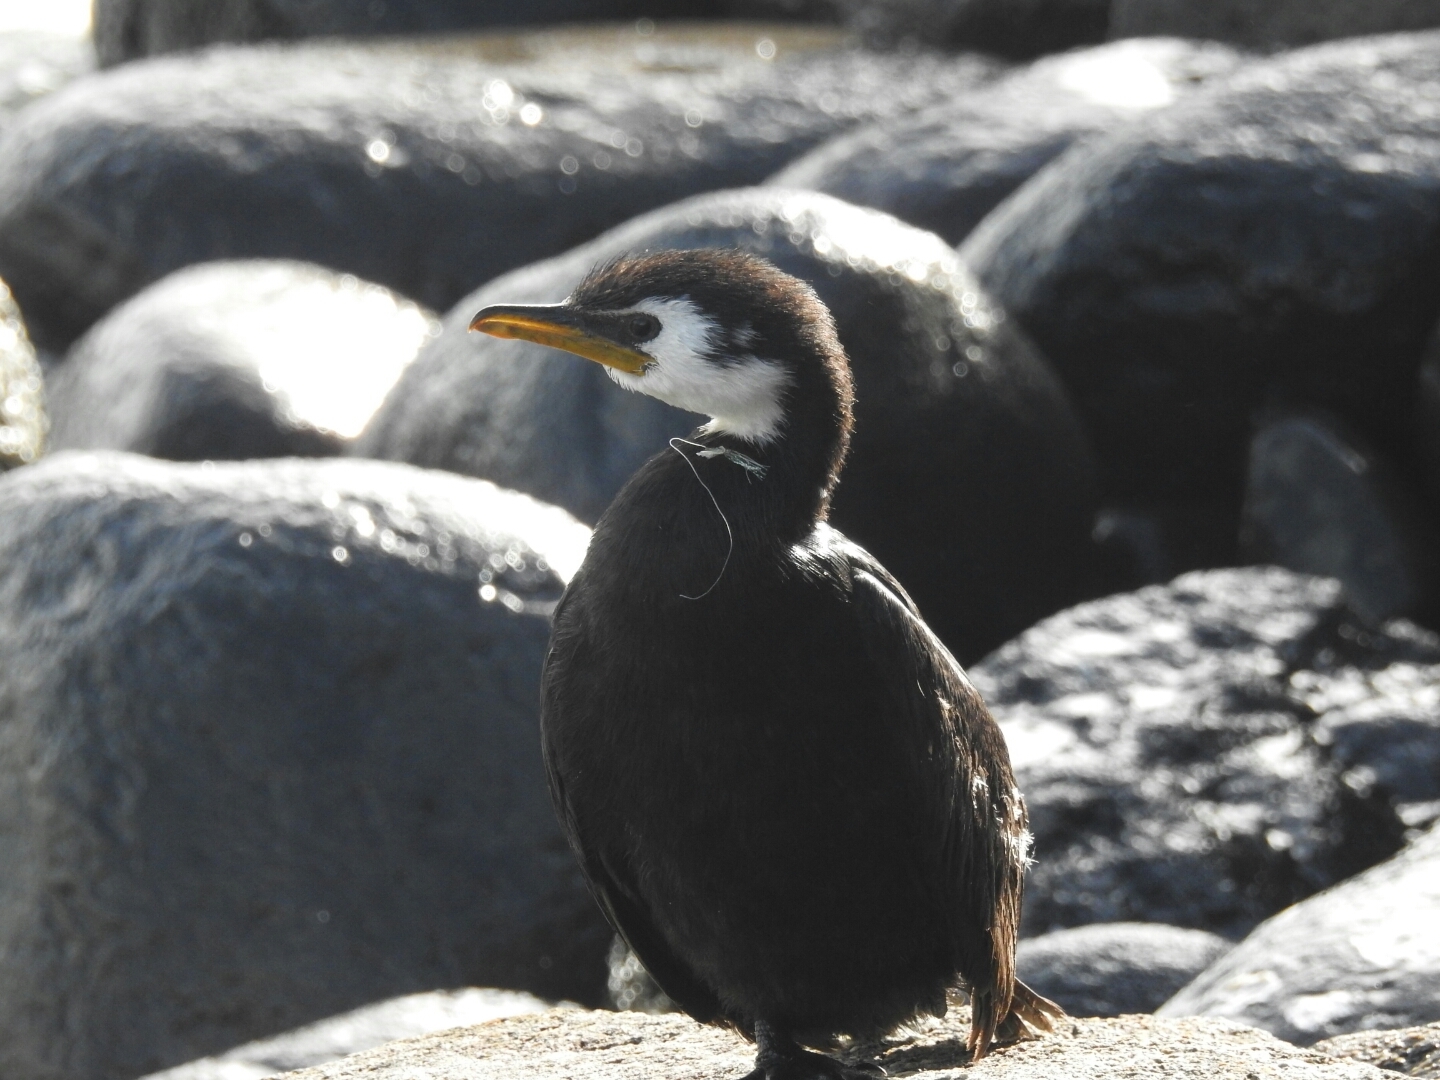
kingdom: Animalia
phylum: Chordata
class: Aves
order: Suliformes
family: Phalacrocoracidae
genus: Microcarbo
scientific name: Microcarbo melanoleucos
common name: Little pied cormorant
